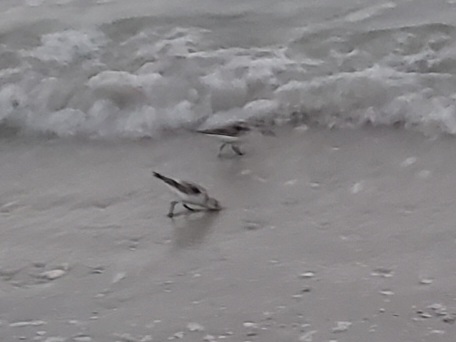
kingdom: Animalia
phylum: Chordata
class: Aves
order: Charadriiformes
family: Scolopacidae
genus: Calidris
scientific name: Calidris alba
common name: Sanderling
